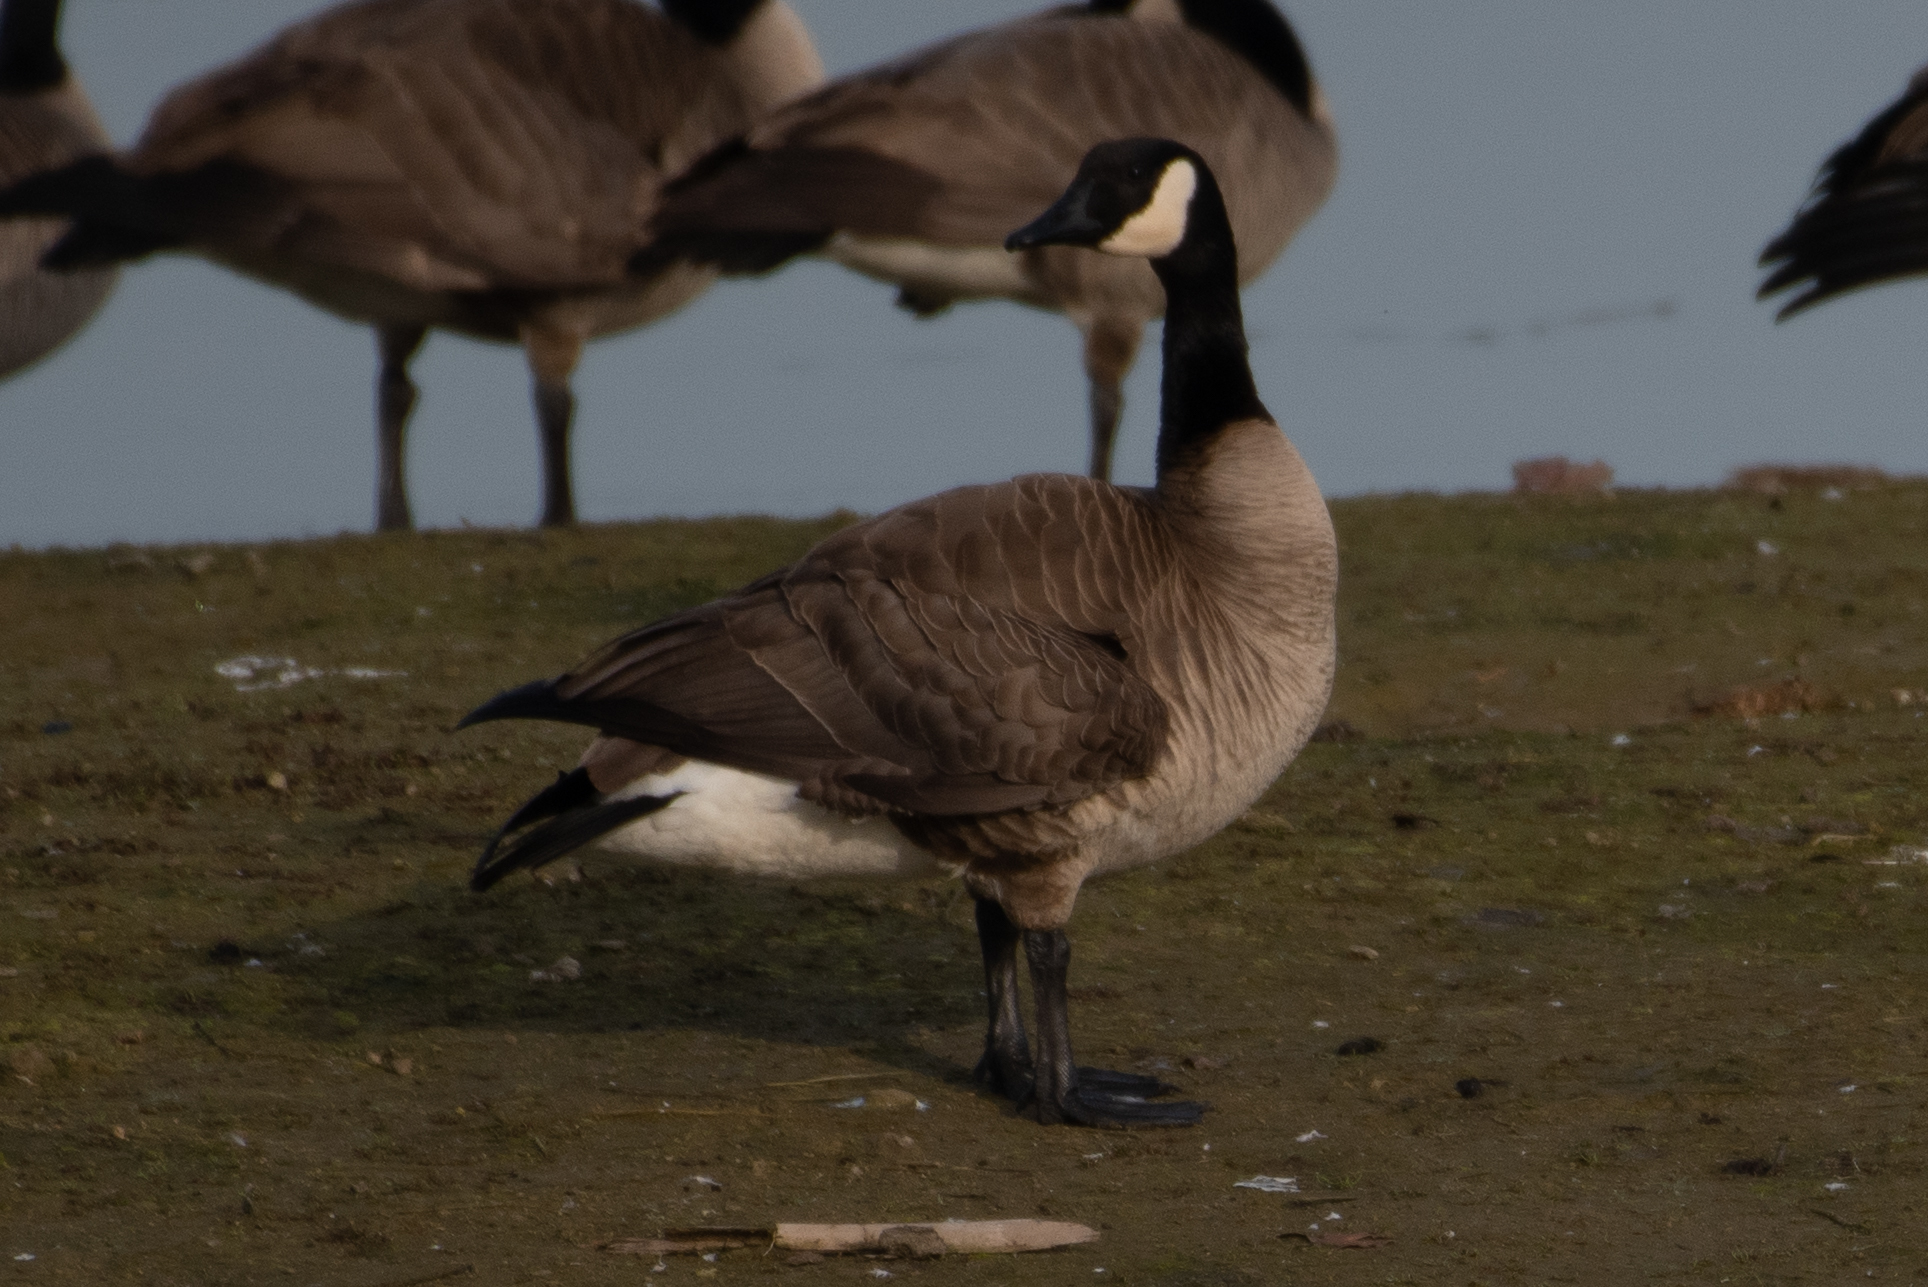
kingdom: Animalia
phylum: Chordata
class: Aves
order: Anseriformes
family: Anatidae
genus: Branta
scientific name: Branta canadensis
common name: Canada goose
